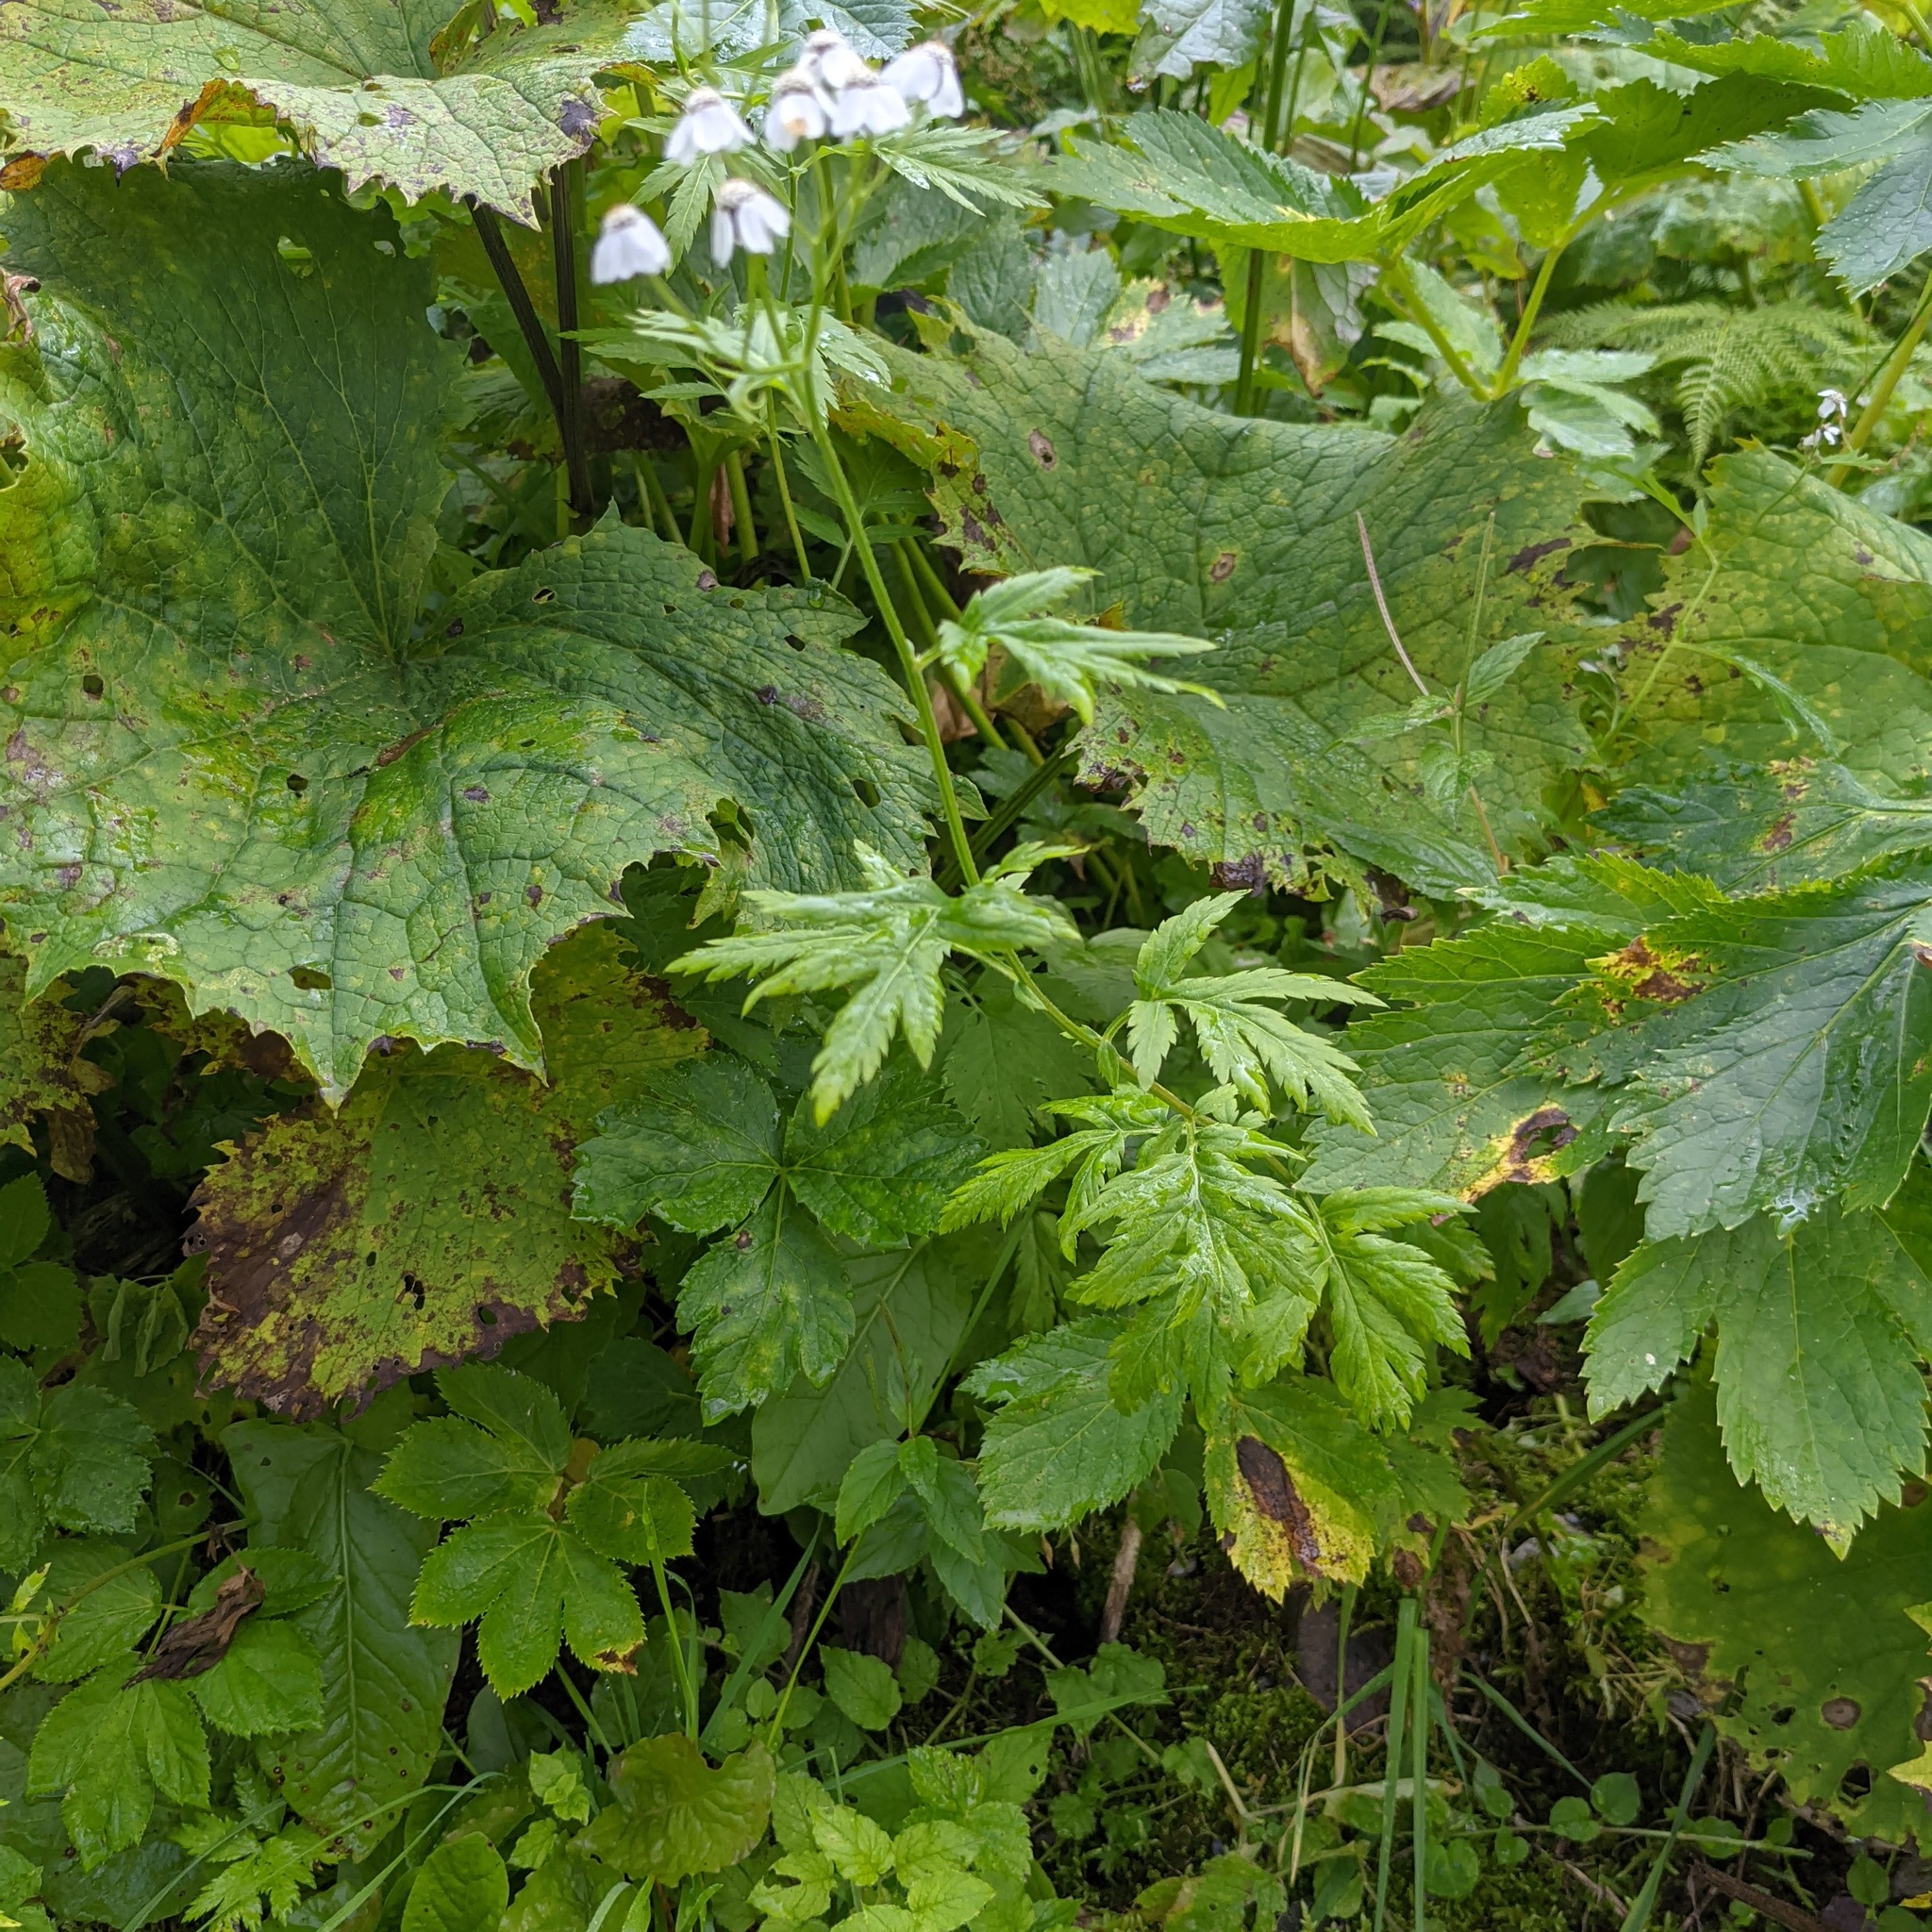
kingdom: Plantae
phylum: Tracheophyta
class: Magnoliopsida
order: Asterales
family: Asteraceae
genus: Achillea
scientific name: Achillea macrophylla
